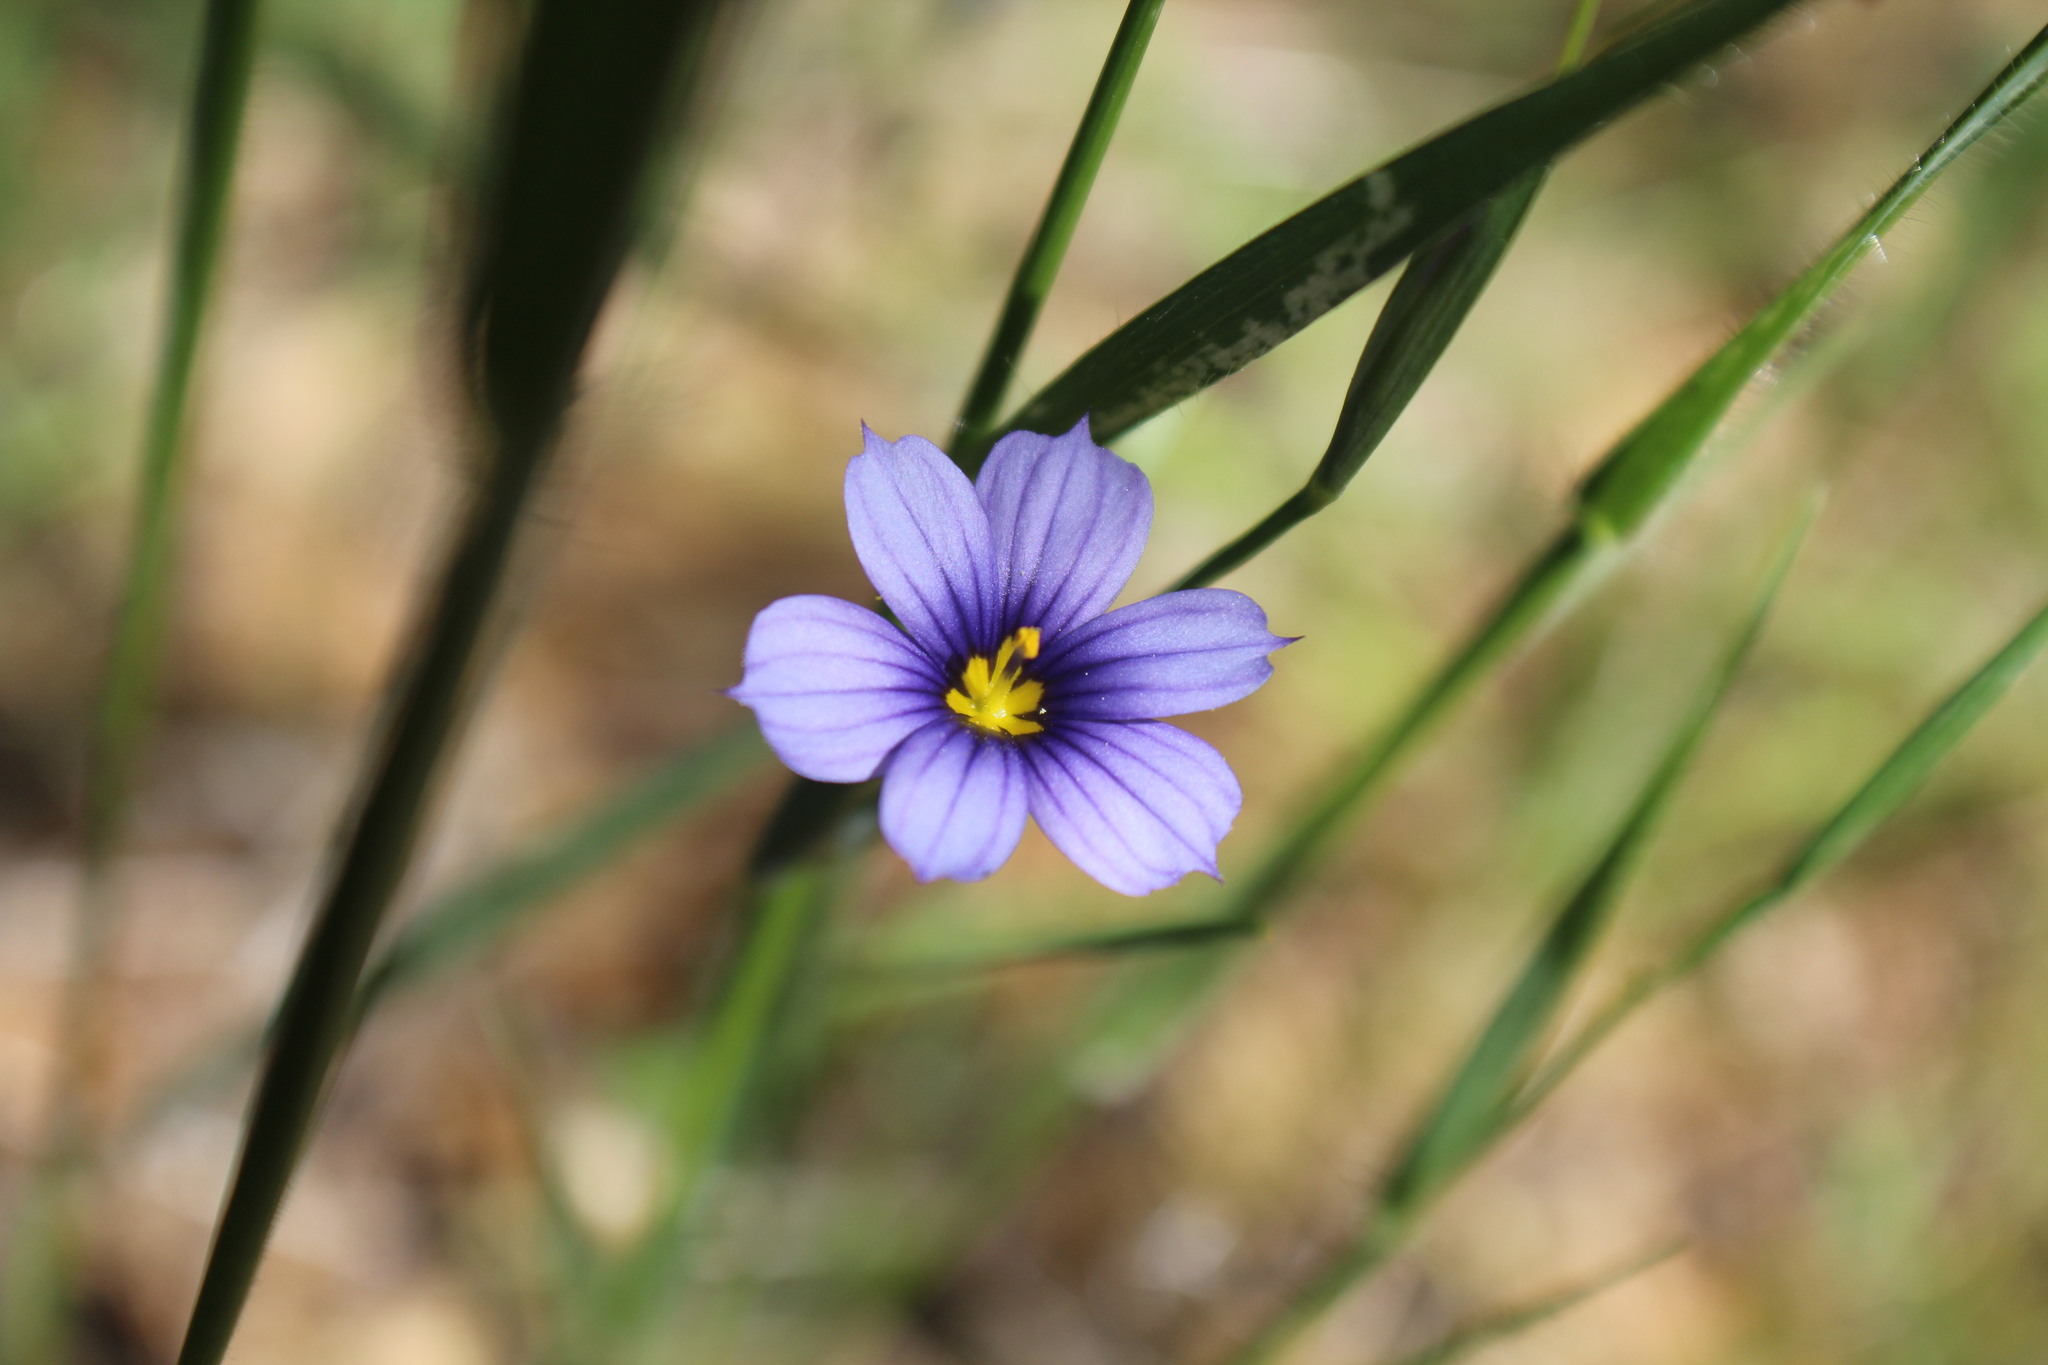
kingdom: Plantae
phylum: Tracheophyta
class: Liliopsida
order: Asparagales
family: Iridaceae
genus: Sisyrinchium
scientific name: Sisyrinchium bellum
